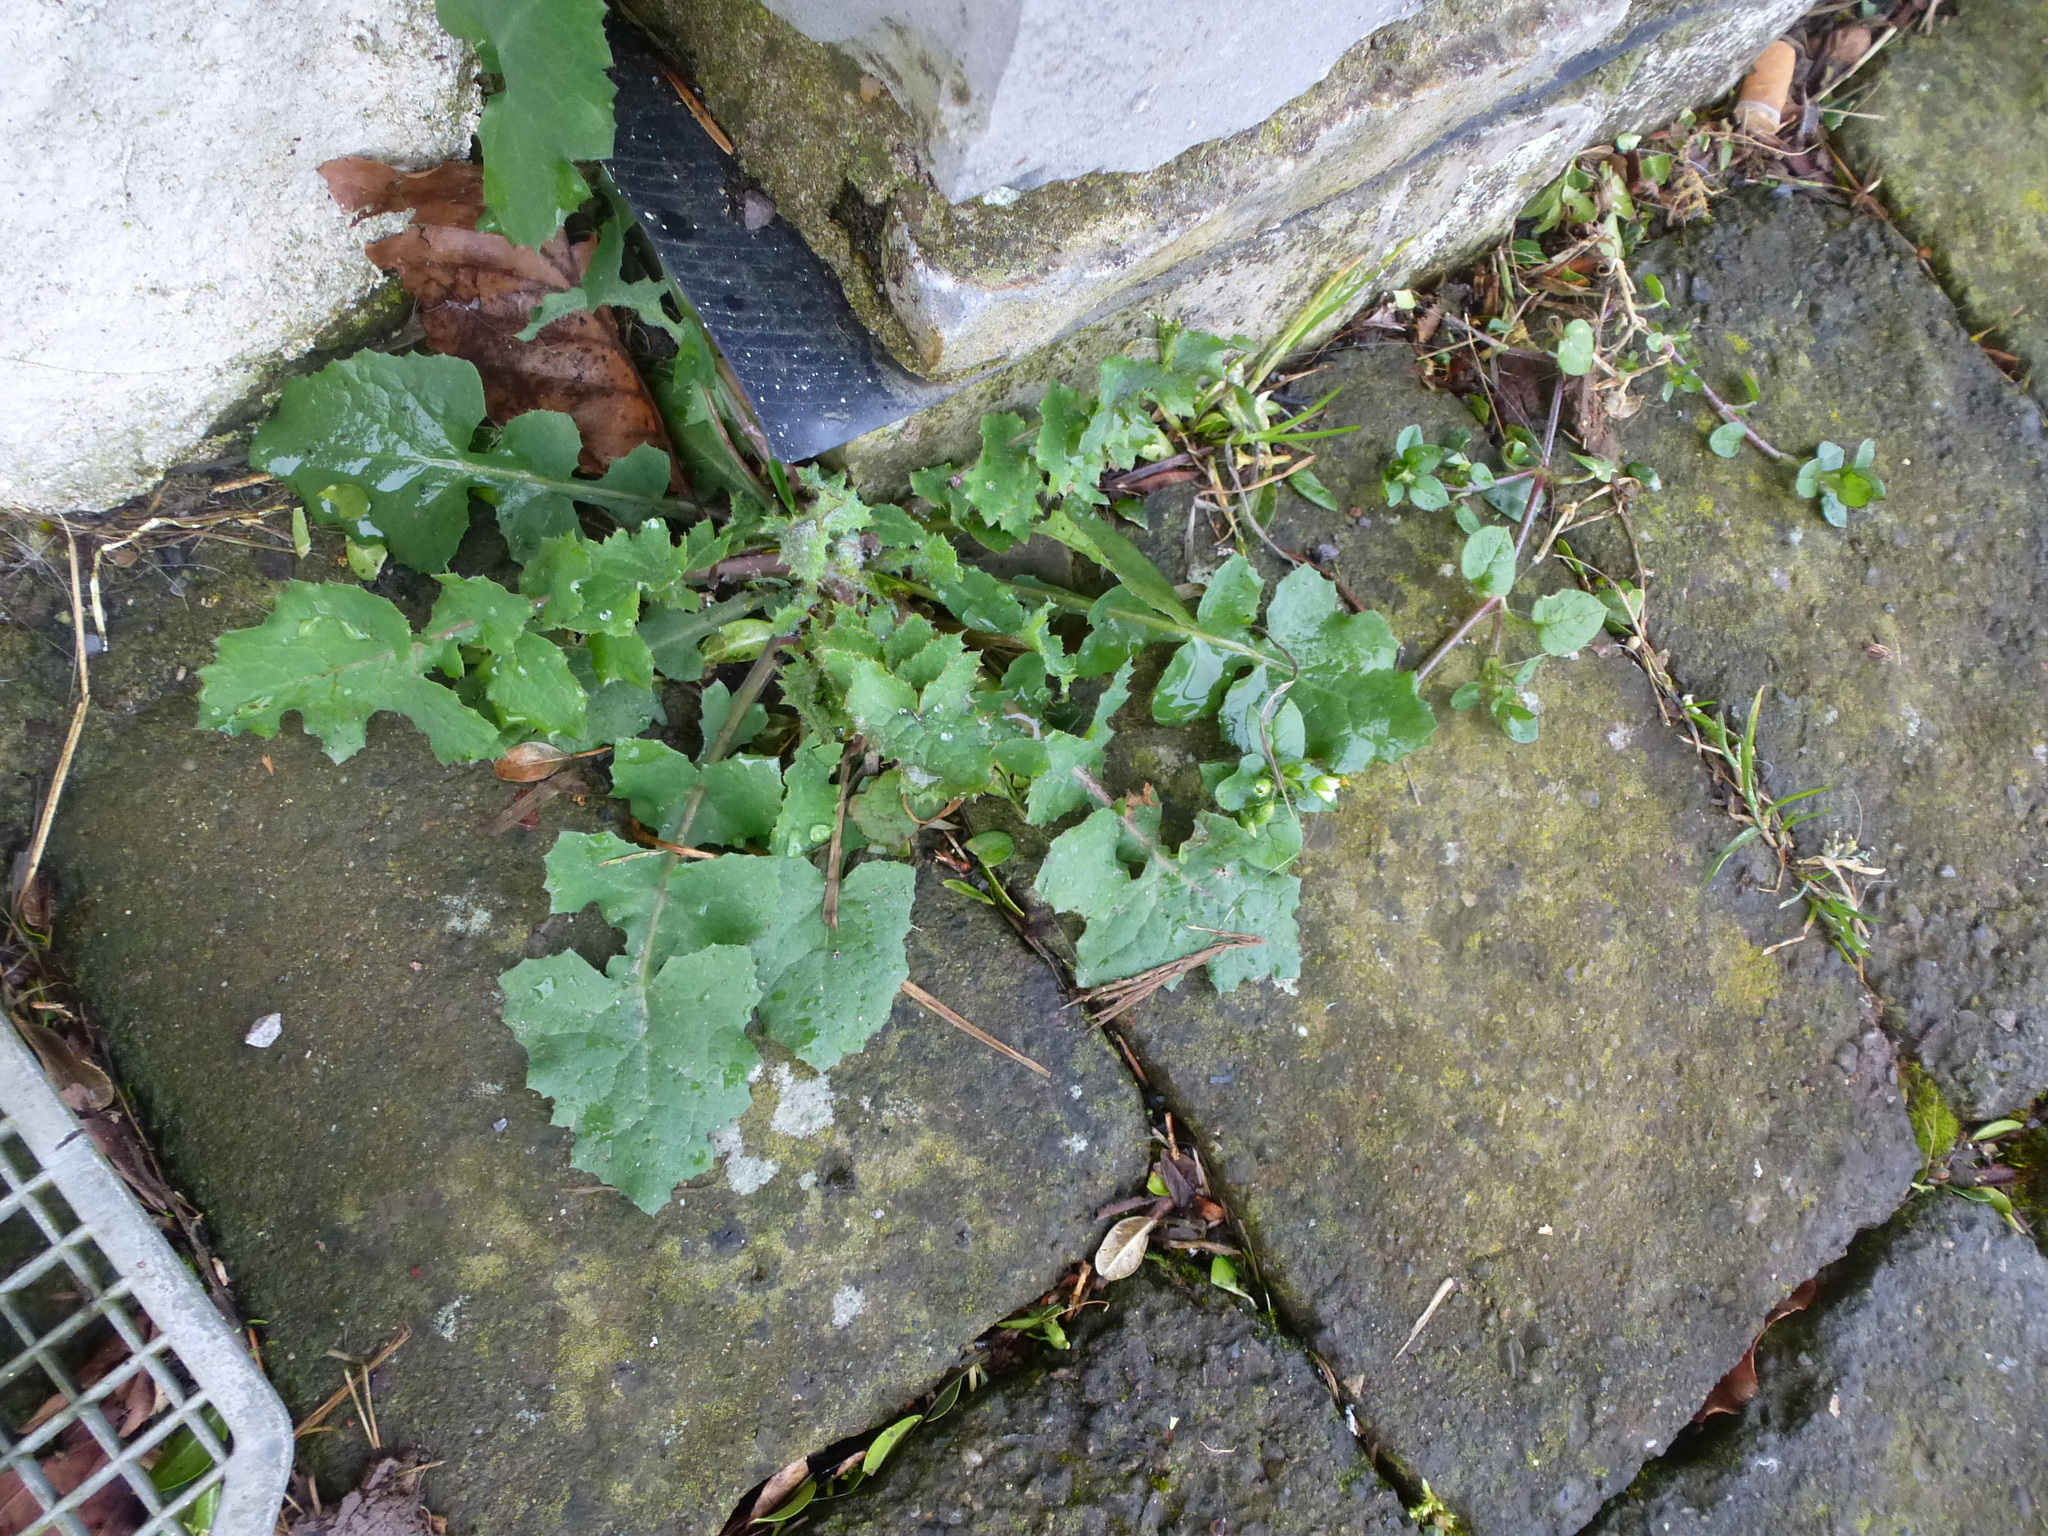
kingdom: Plantae
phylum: Tracheophyta
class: Magnoliopsida
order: Asterales
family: Asteraceae
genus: Sonchus
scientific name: Sonchus oleraceus
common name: Common sowthistle
